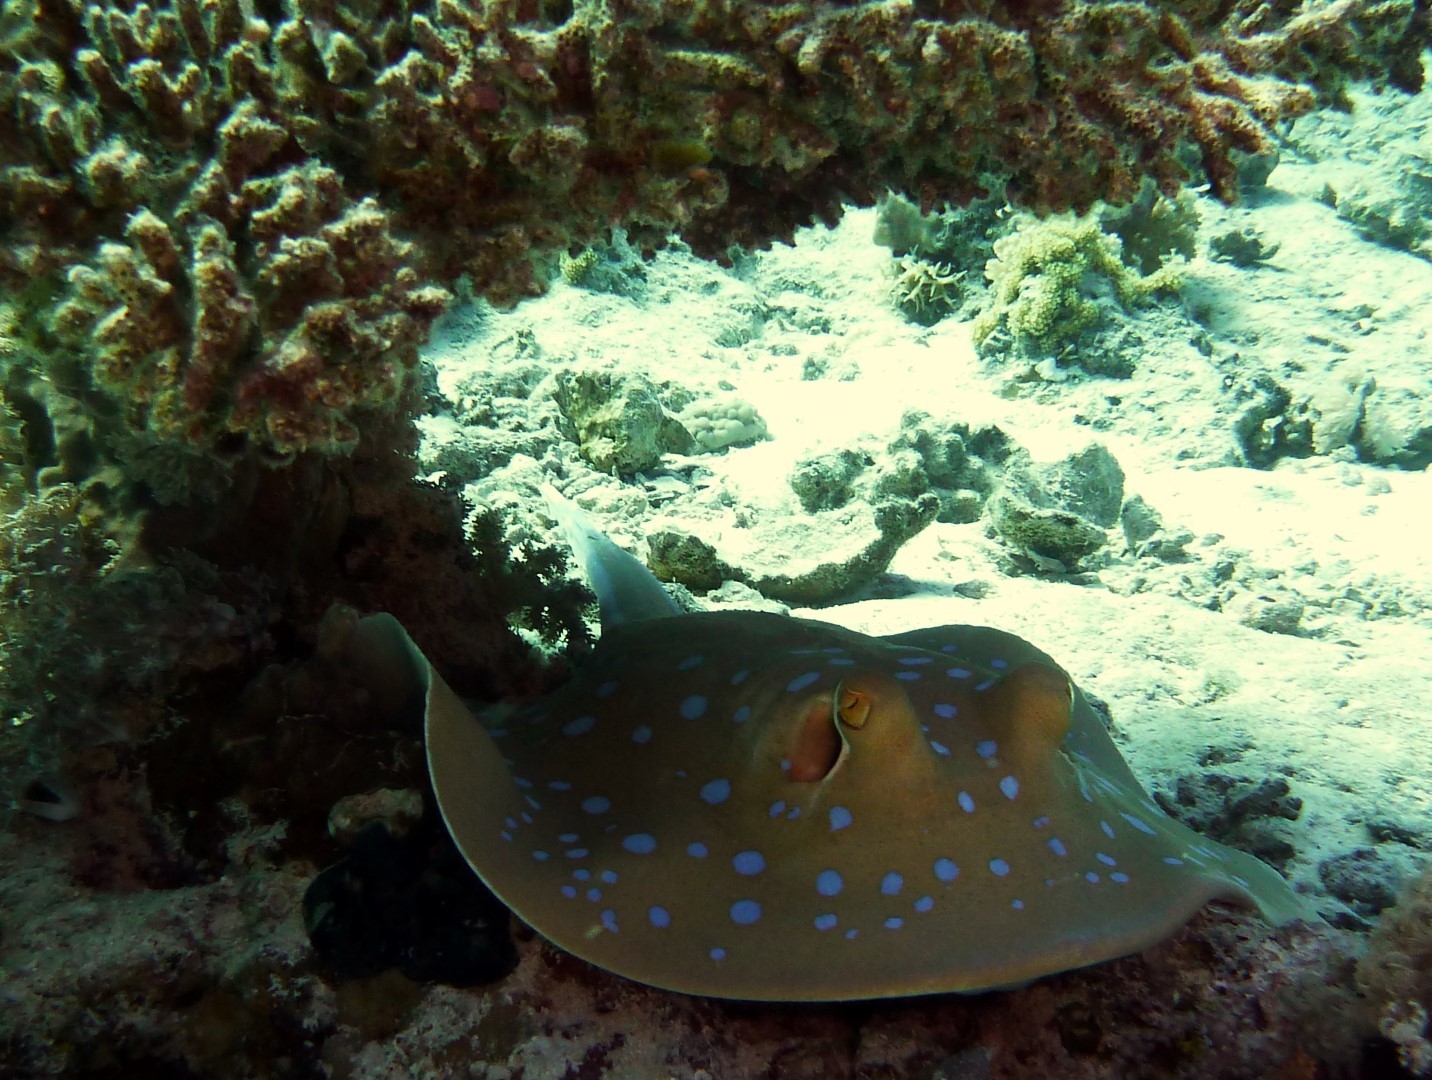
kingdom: Animalia
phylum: Chordata
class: Elasmobranchii
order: Myliobatiformes
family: Dasyatidae
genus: Taeniura
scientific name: Taeniura lymma
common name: Bluespotted ribbontail ray
